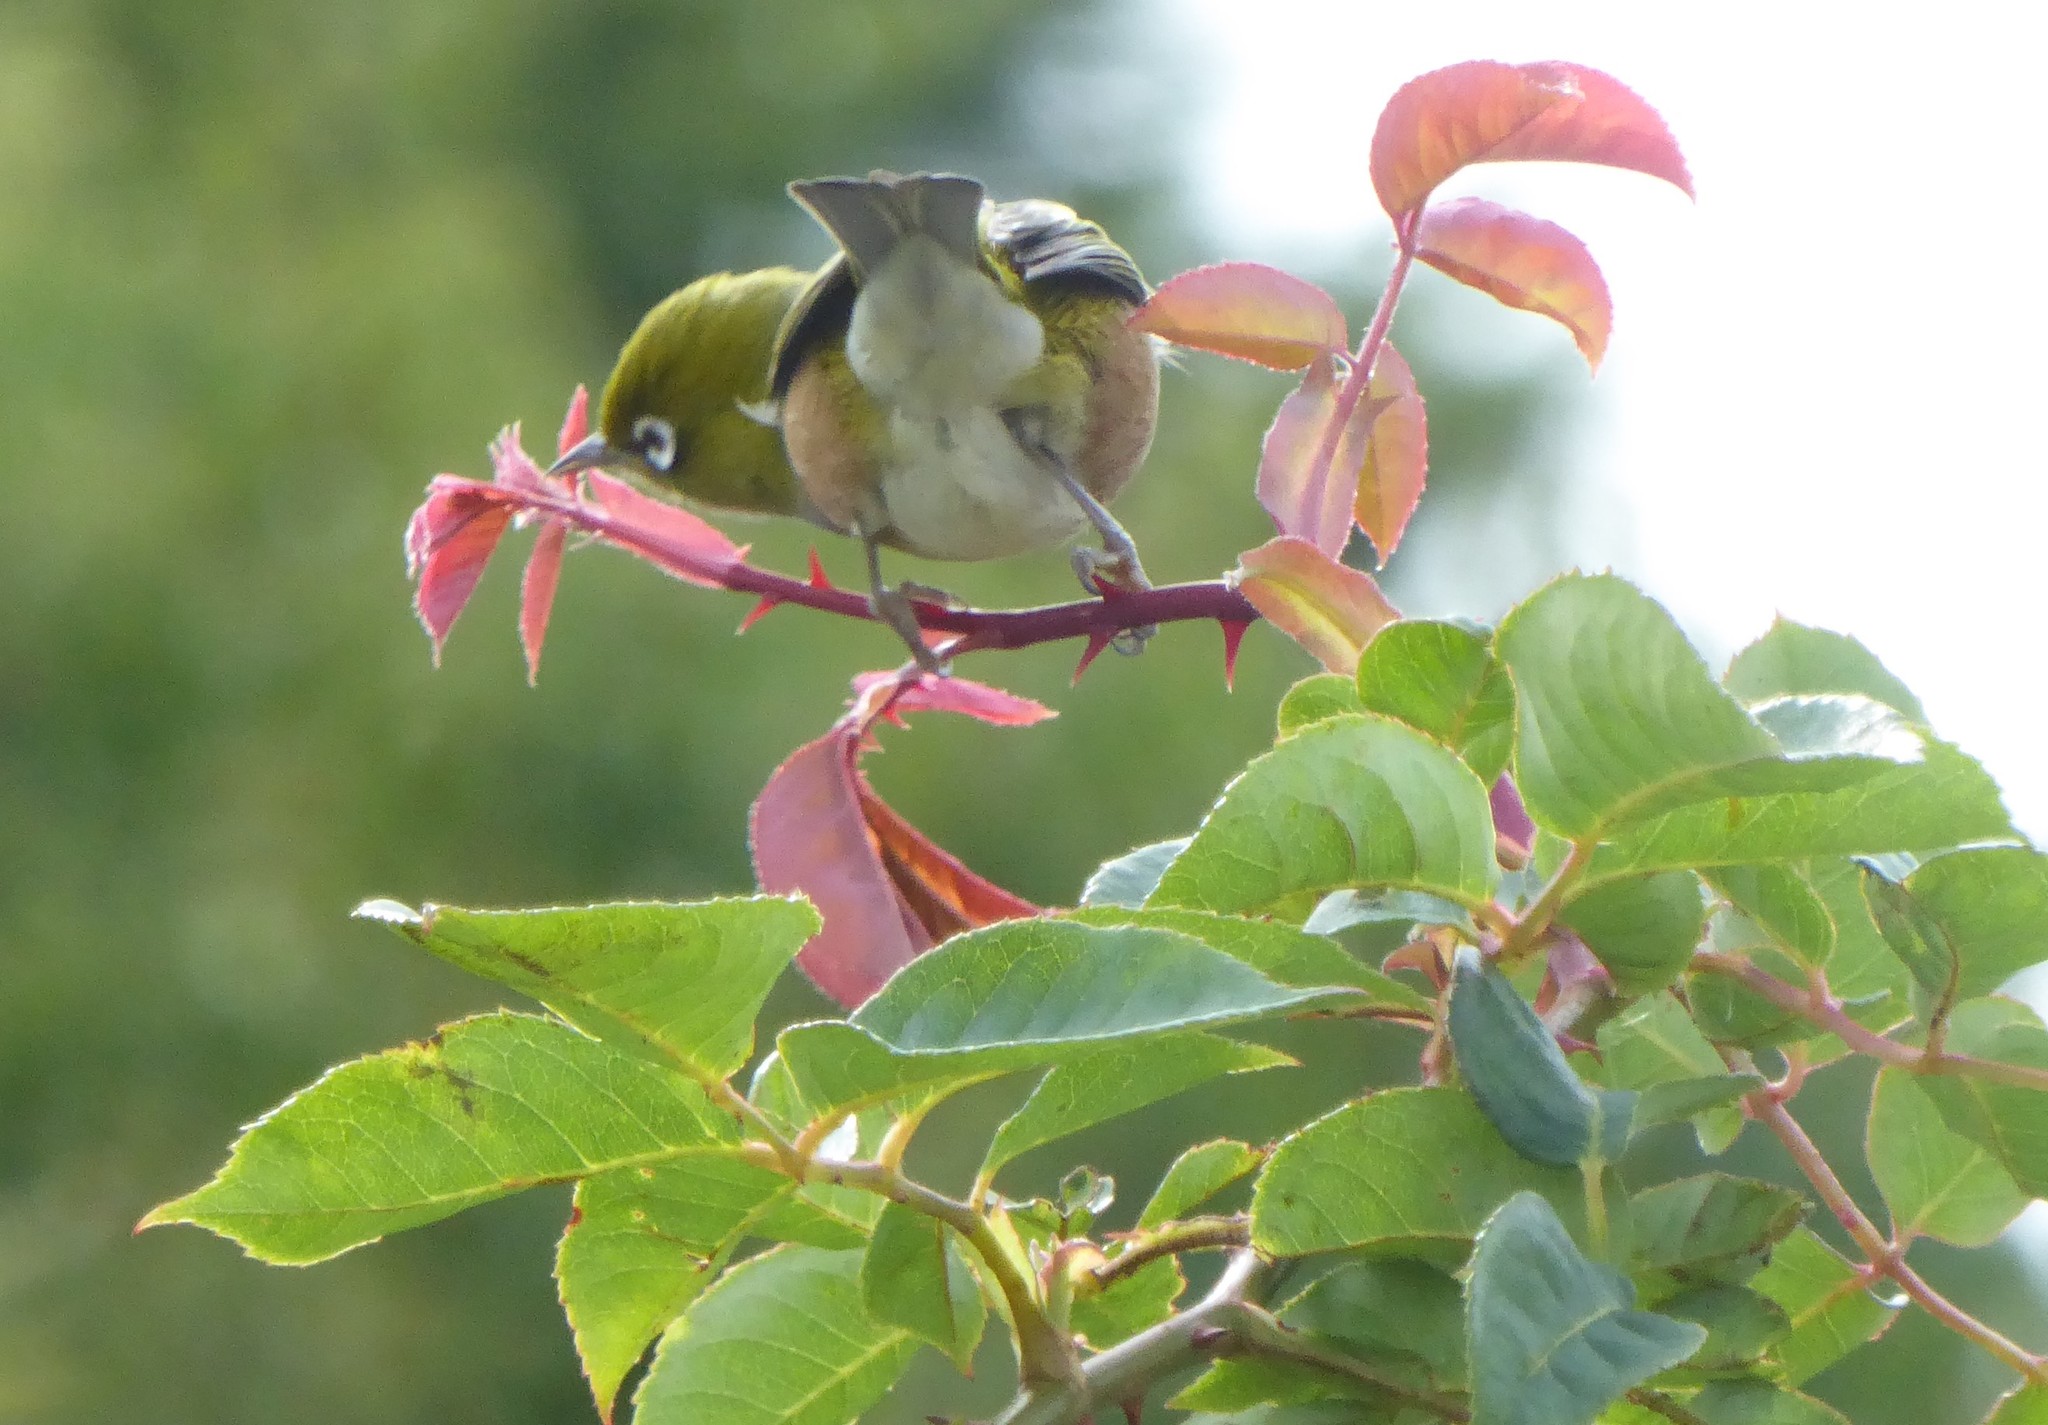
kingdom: Animalia
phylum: Chordata
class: Aves
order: Passeriformes
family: Zosteropidae
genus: Zosterops
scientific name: Zosterops lateralis
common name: Silvereye
